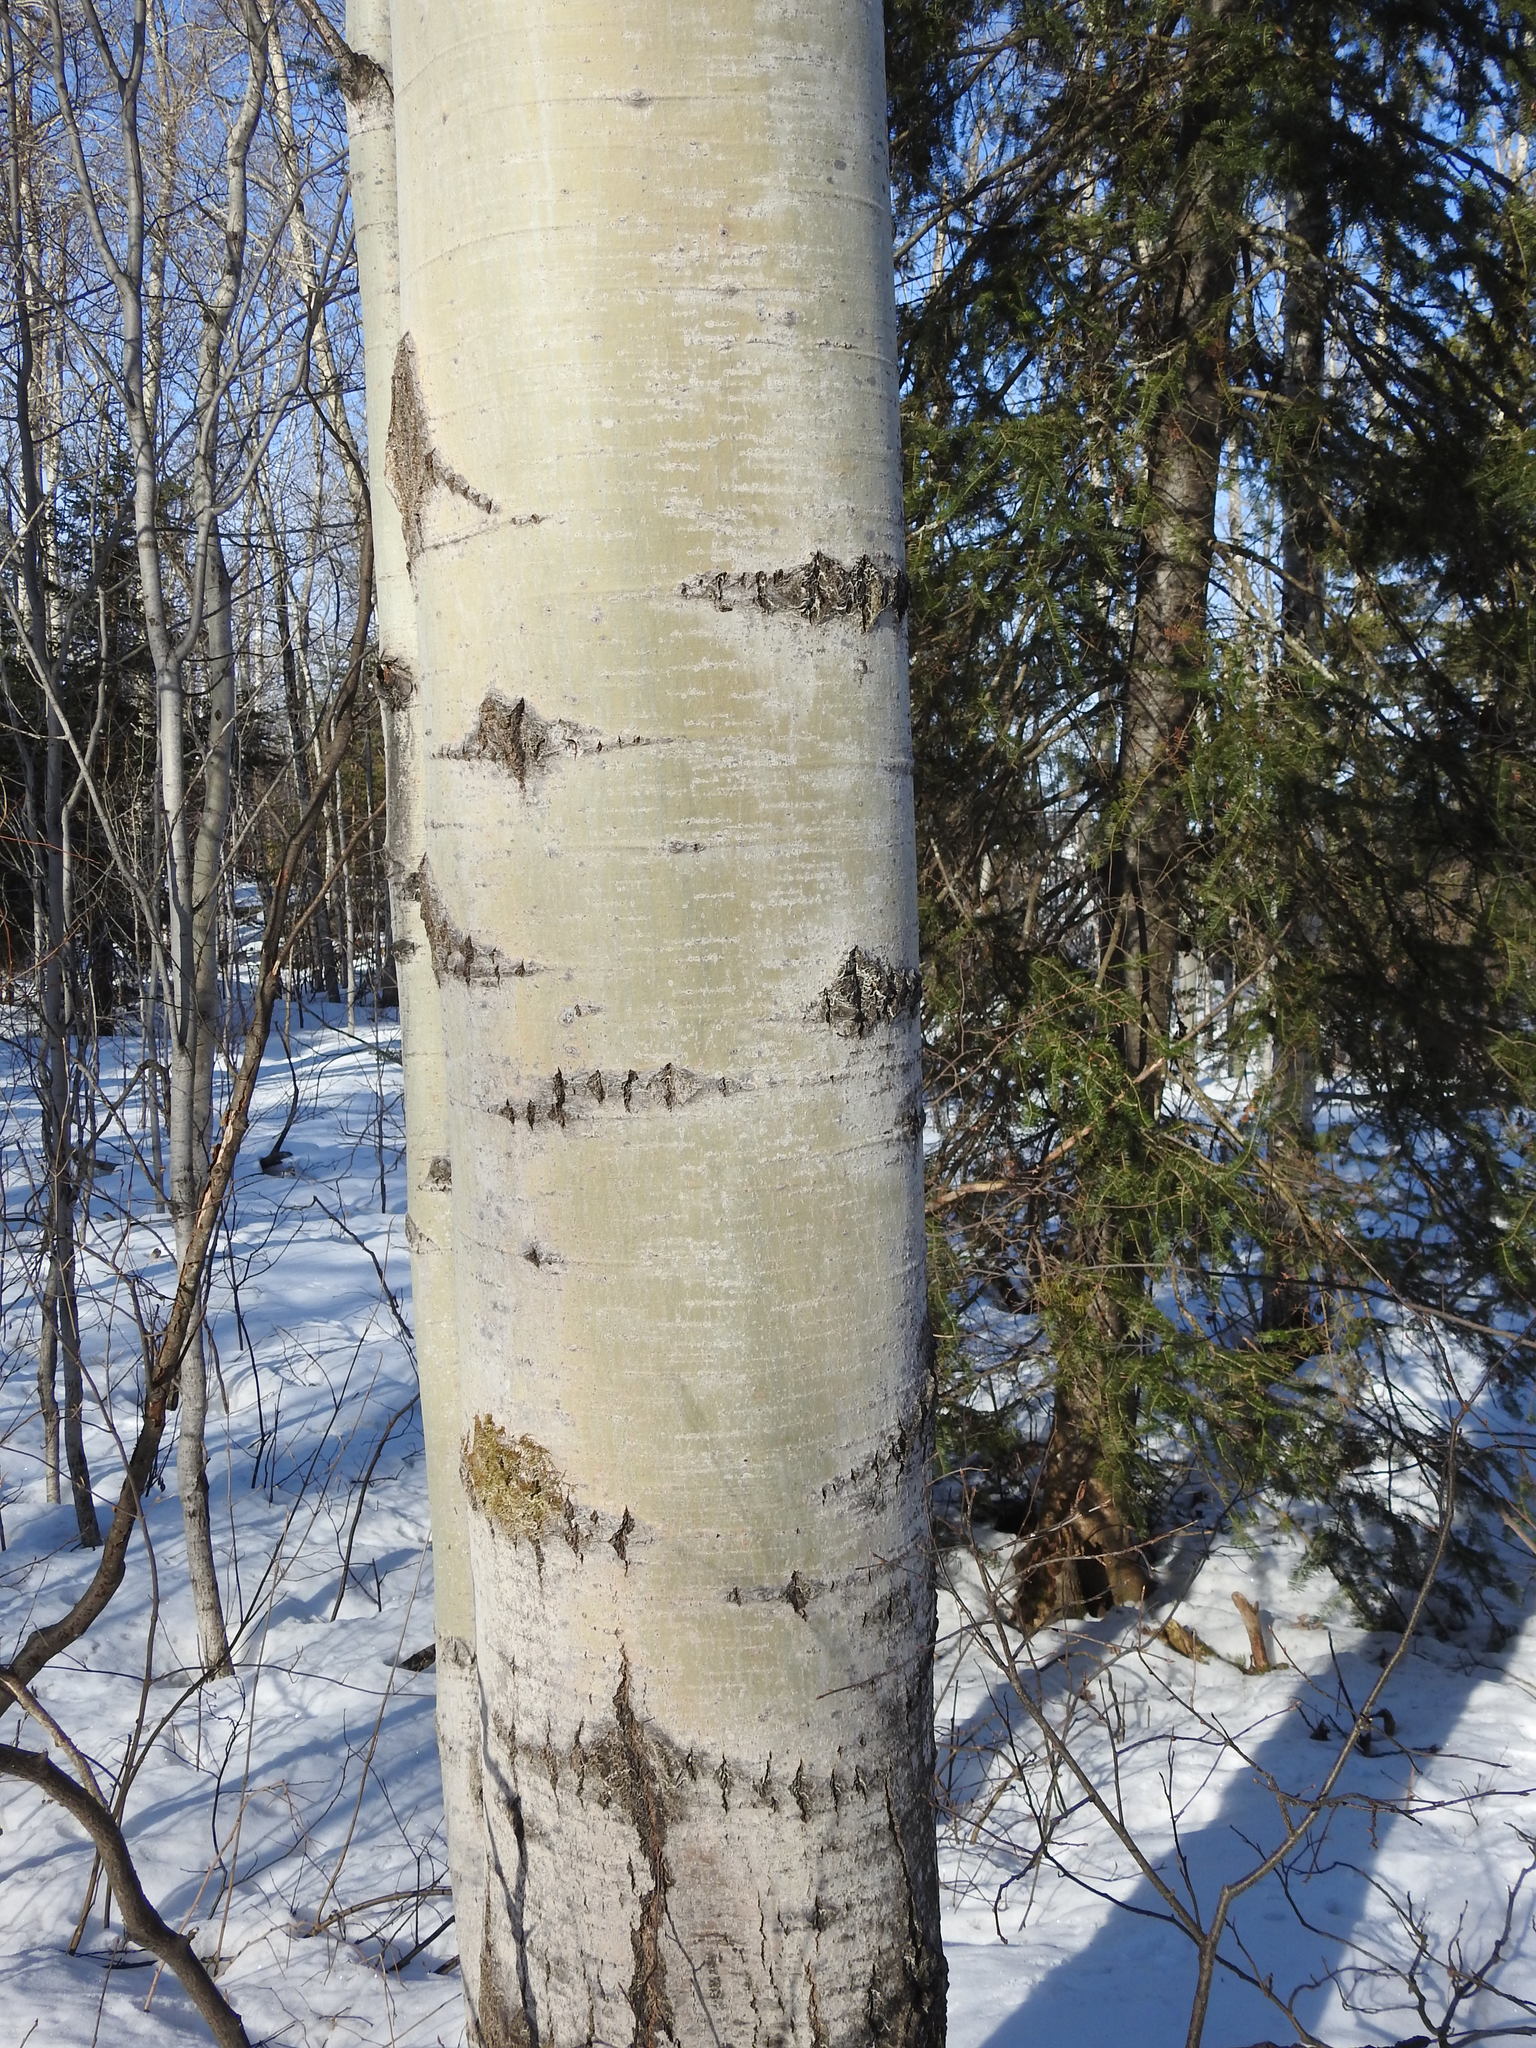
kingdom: Plantae
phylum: Tracheophyta
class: Magnoliopsida
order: Malpighiales
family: Salicaceae
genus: Populus
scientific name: Populus tremuloides
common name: Quaking aspen
